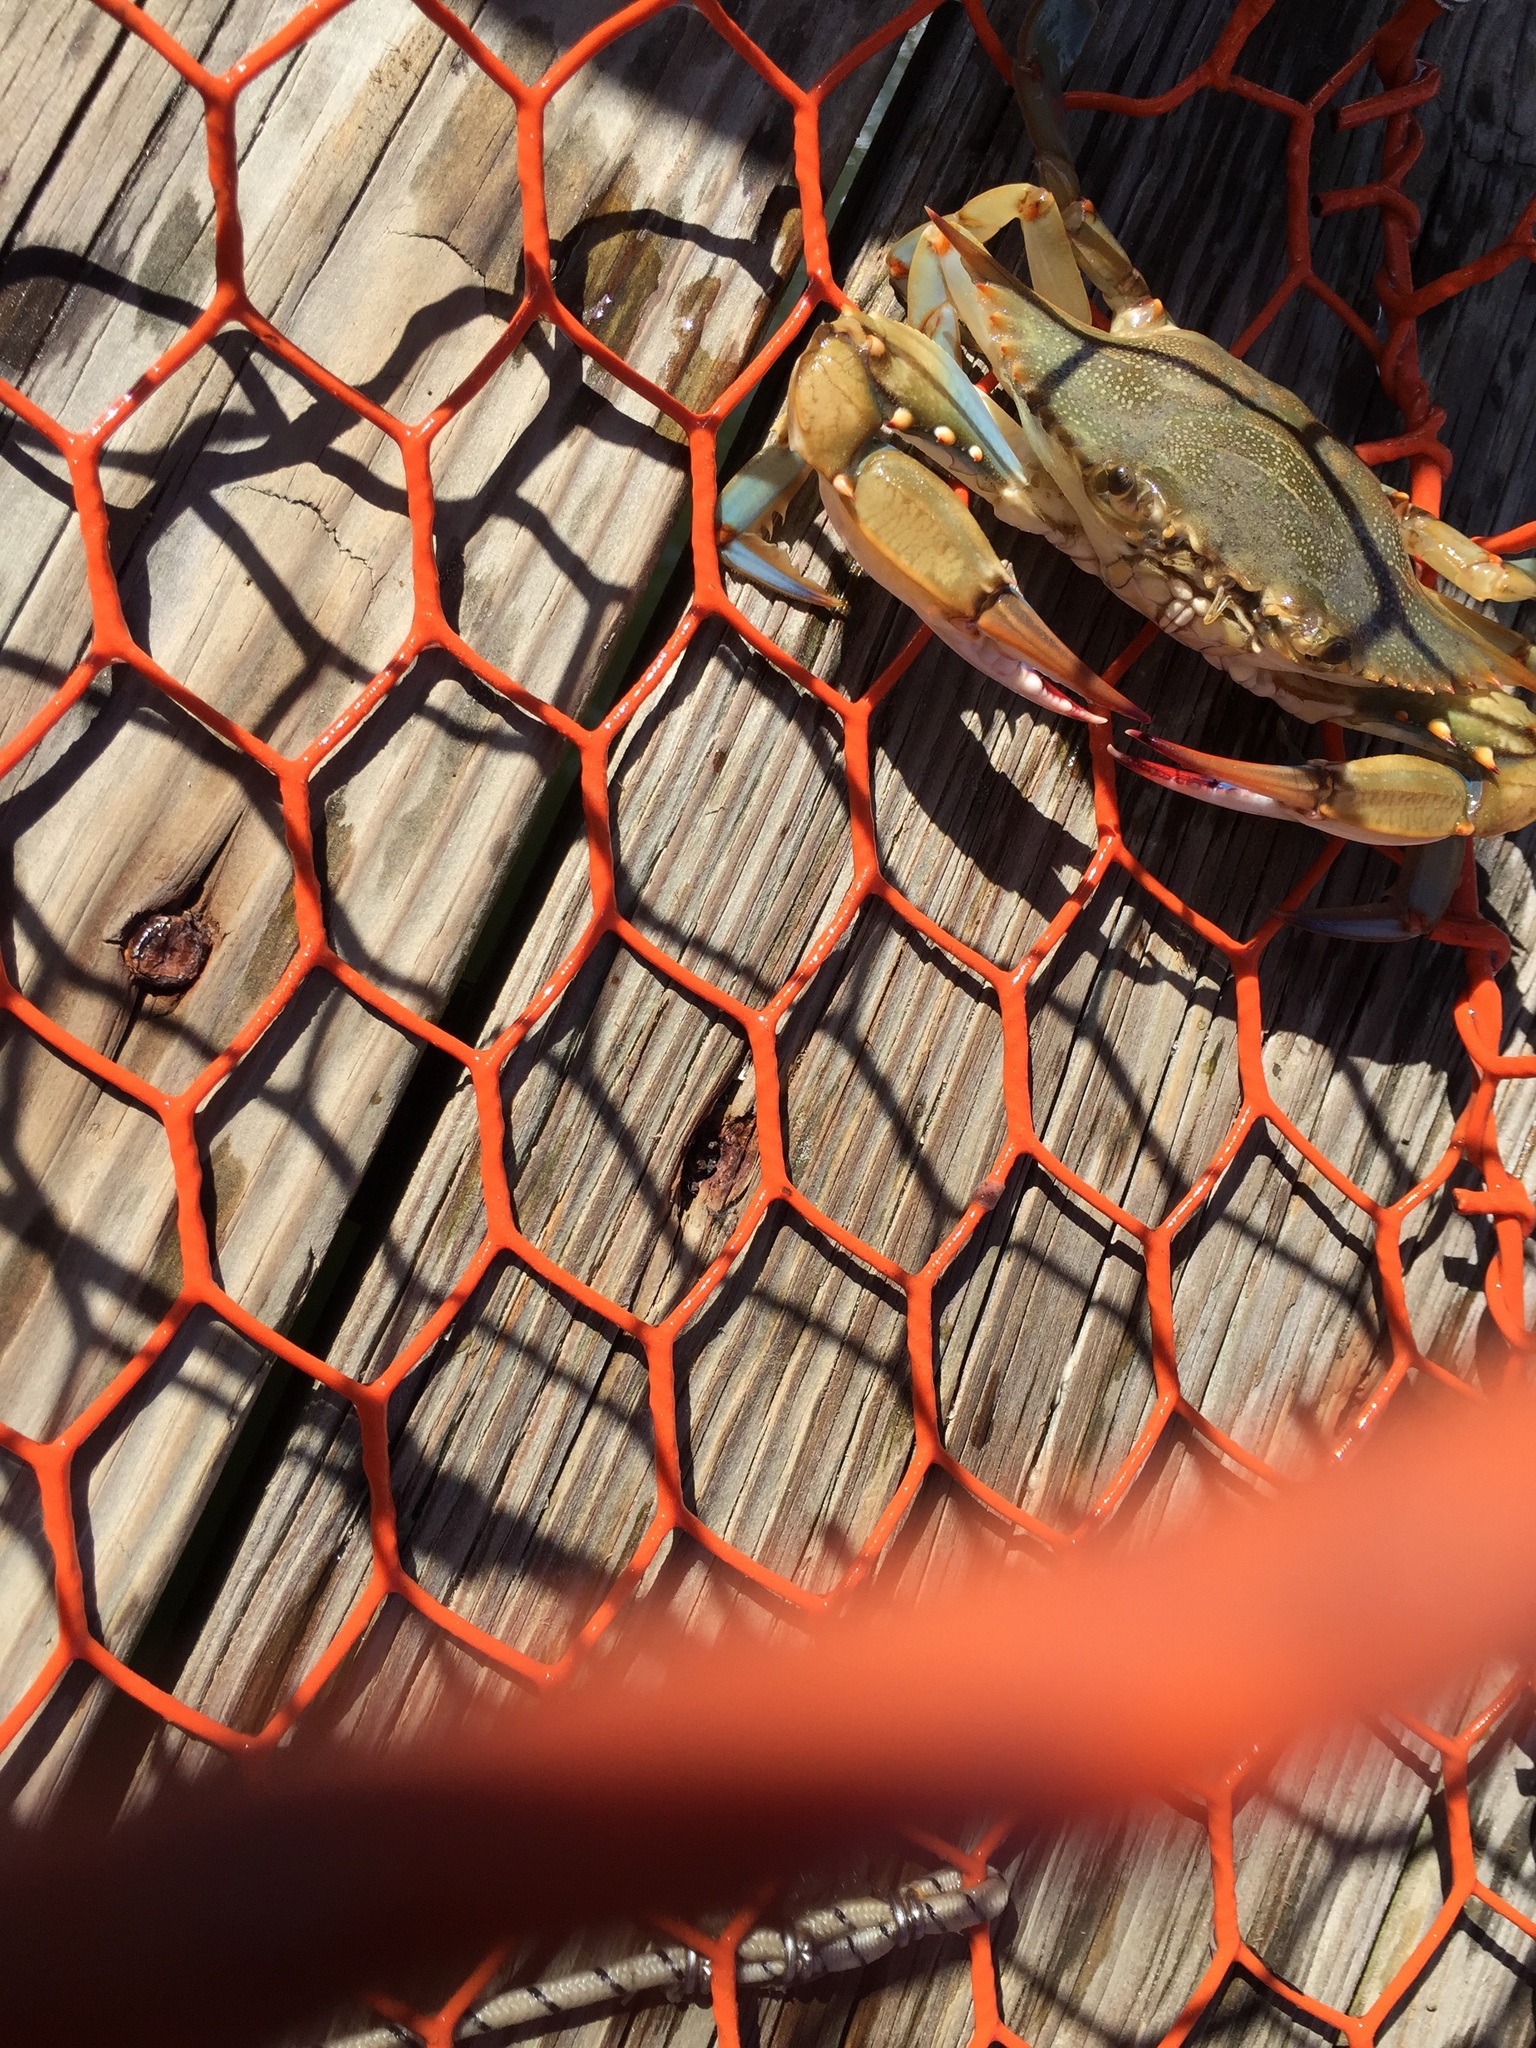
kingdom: Animalia
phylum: Arthropoda
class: Malacostraca
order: Decapoda
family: Portunidae
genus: Callinectes
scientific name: Callinectes sapidus
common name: Blue crab
